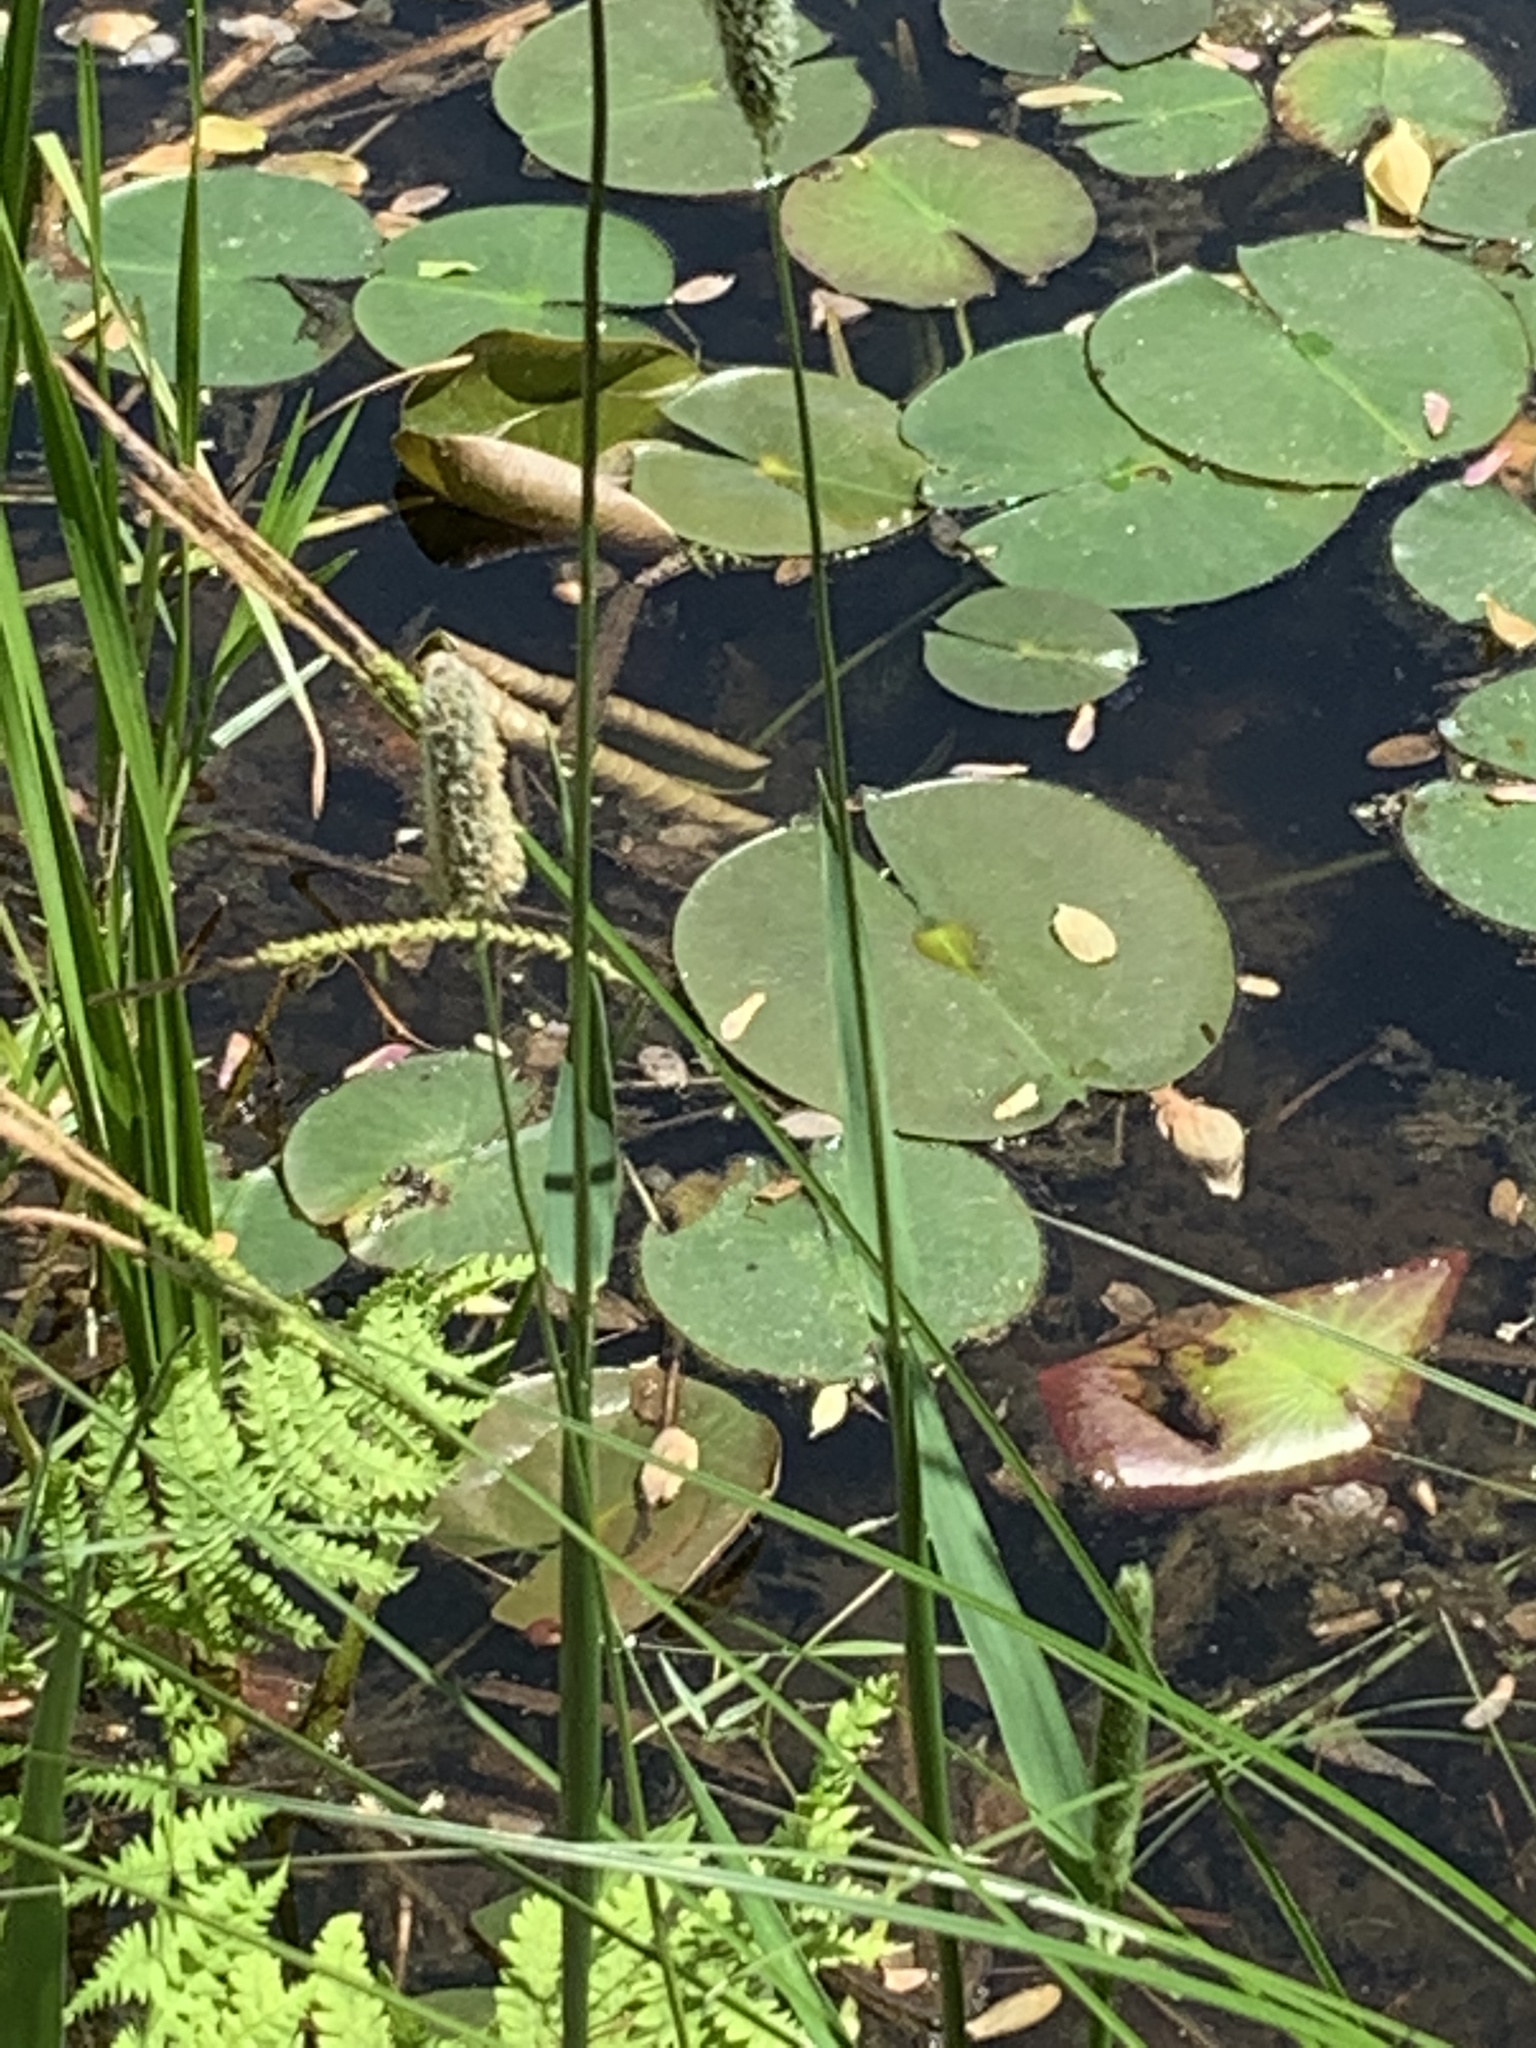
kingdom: Plantae
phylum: Tracheophyta
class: Liliopsida
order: Poales
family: Poaceae
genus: Alopecurus
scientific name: Alopecurus arundinaceus
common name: Creeping meadow foxtail
